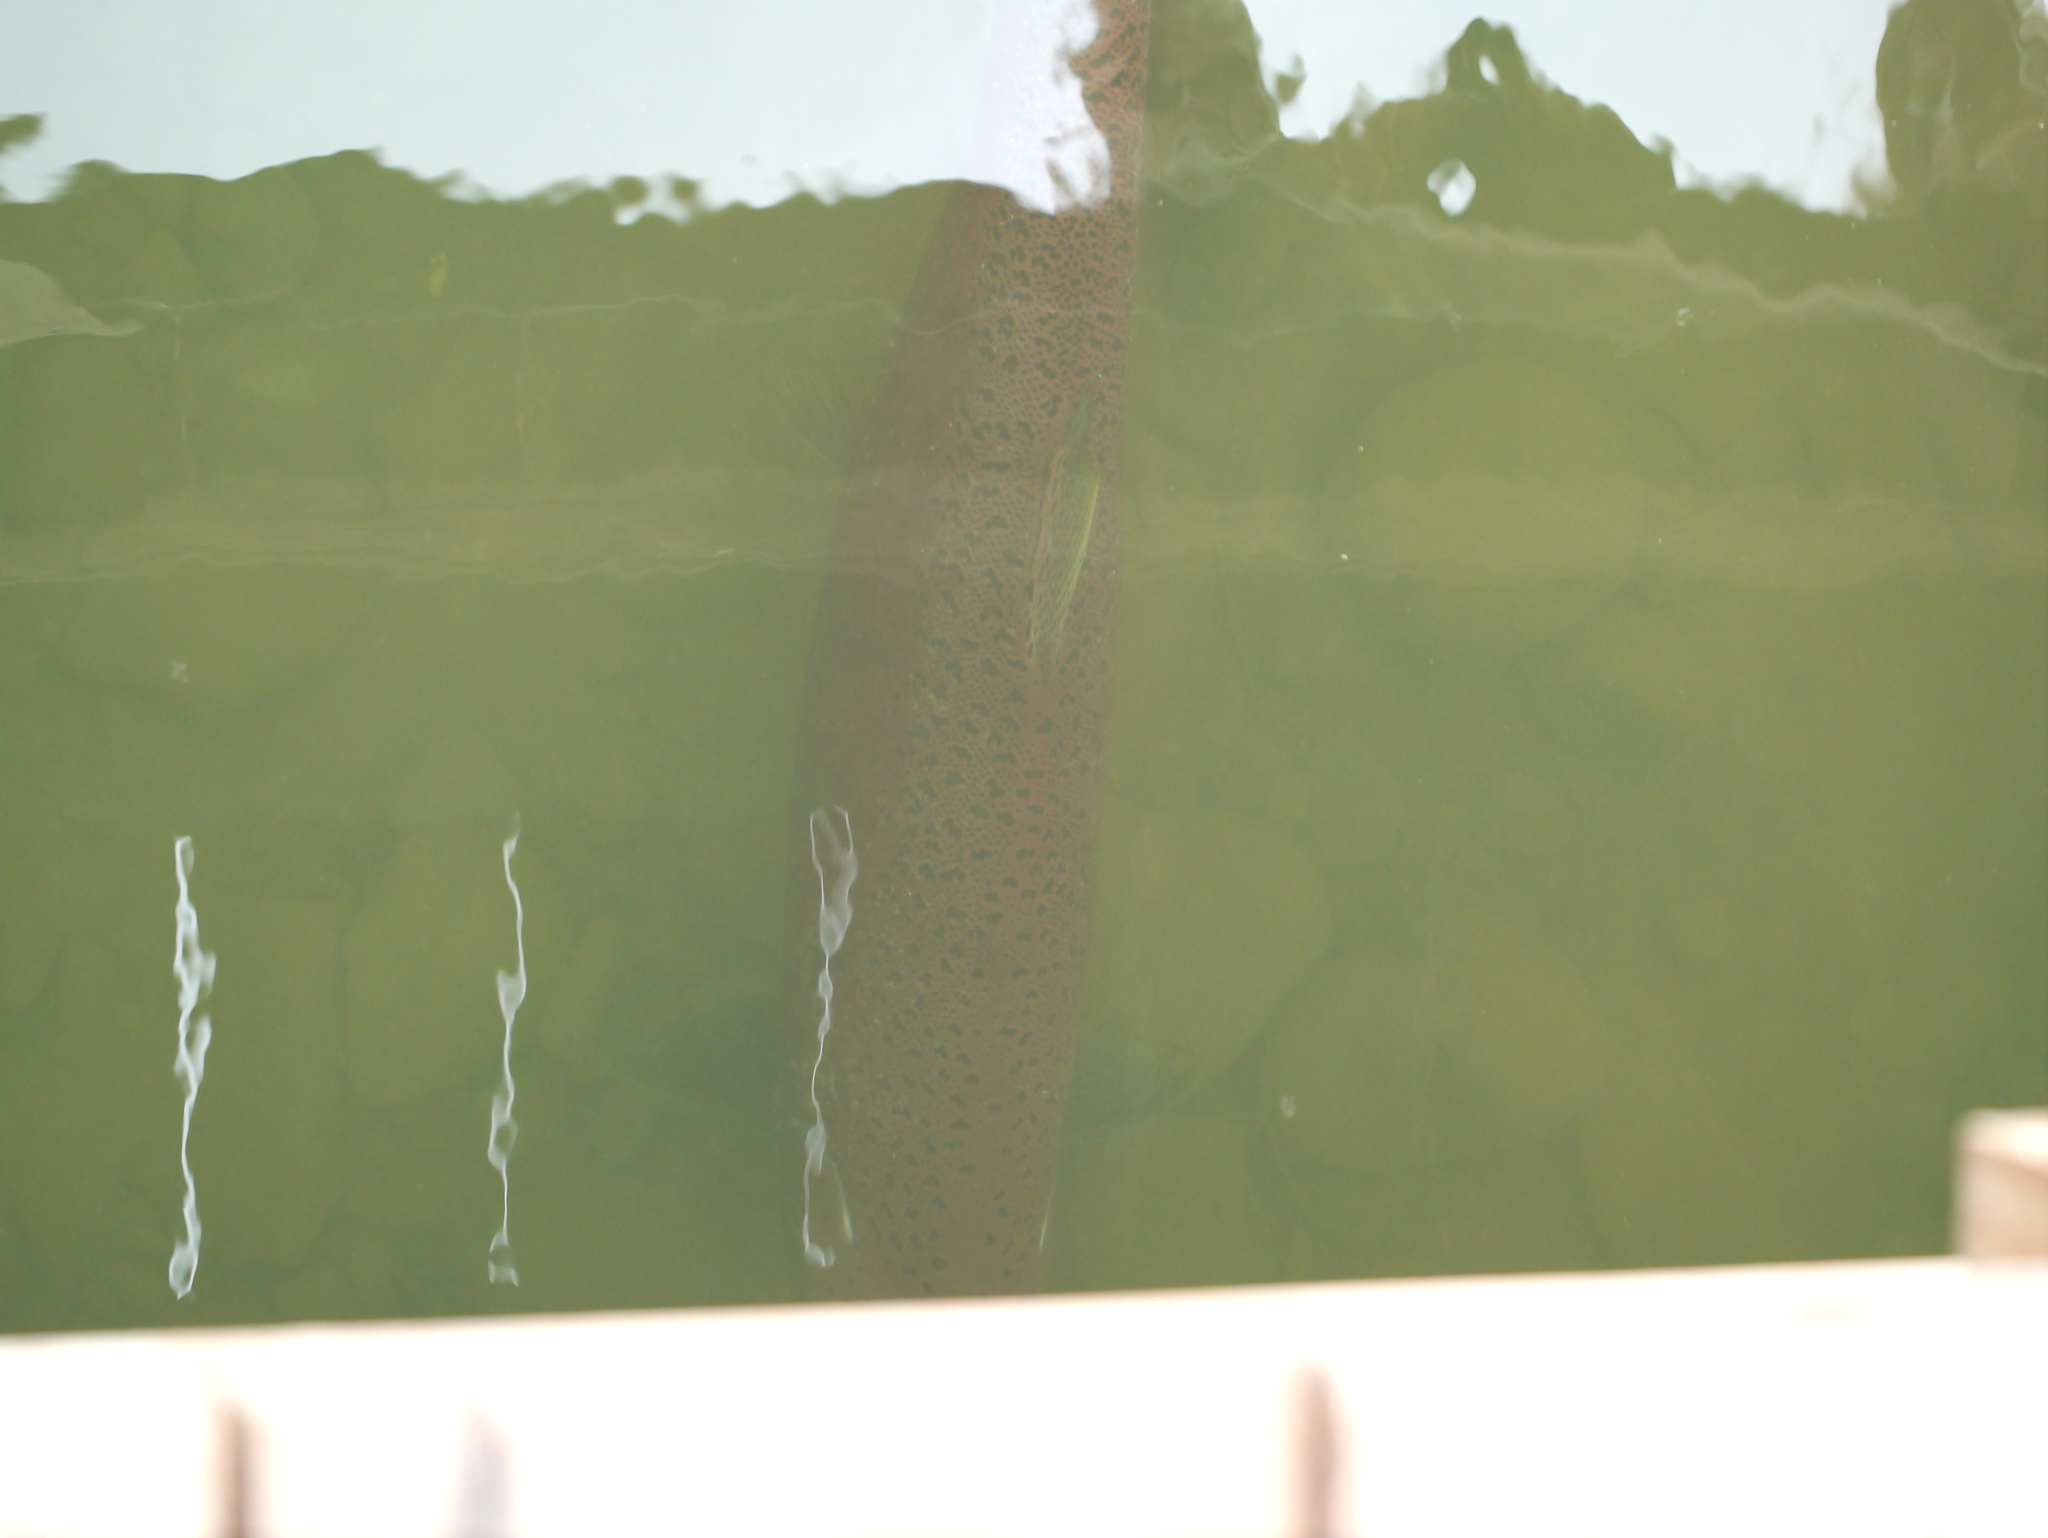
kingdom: Animalia
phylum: Chordata
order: Salmoniformes
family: Salmonidae
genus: Oncorhynchus
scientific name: Oncorhynchus tshawytscha
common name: Chinook salmon
